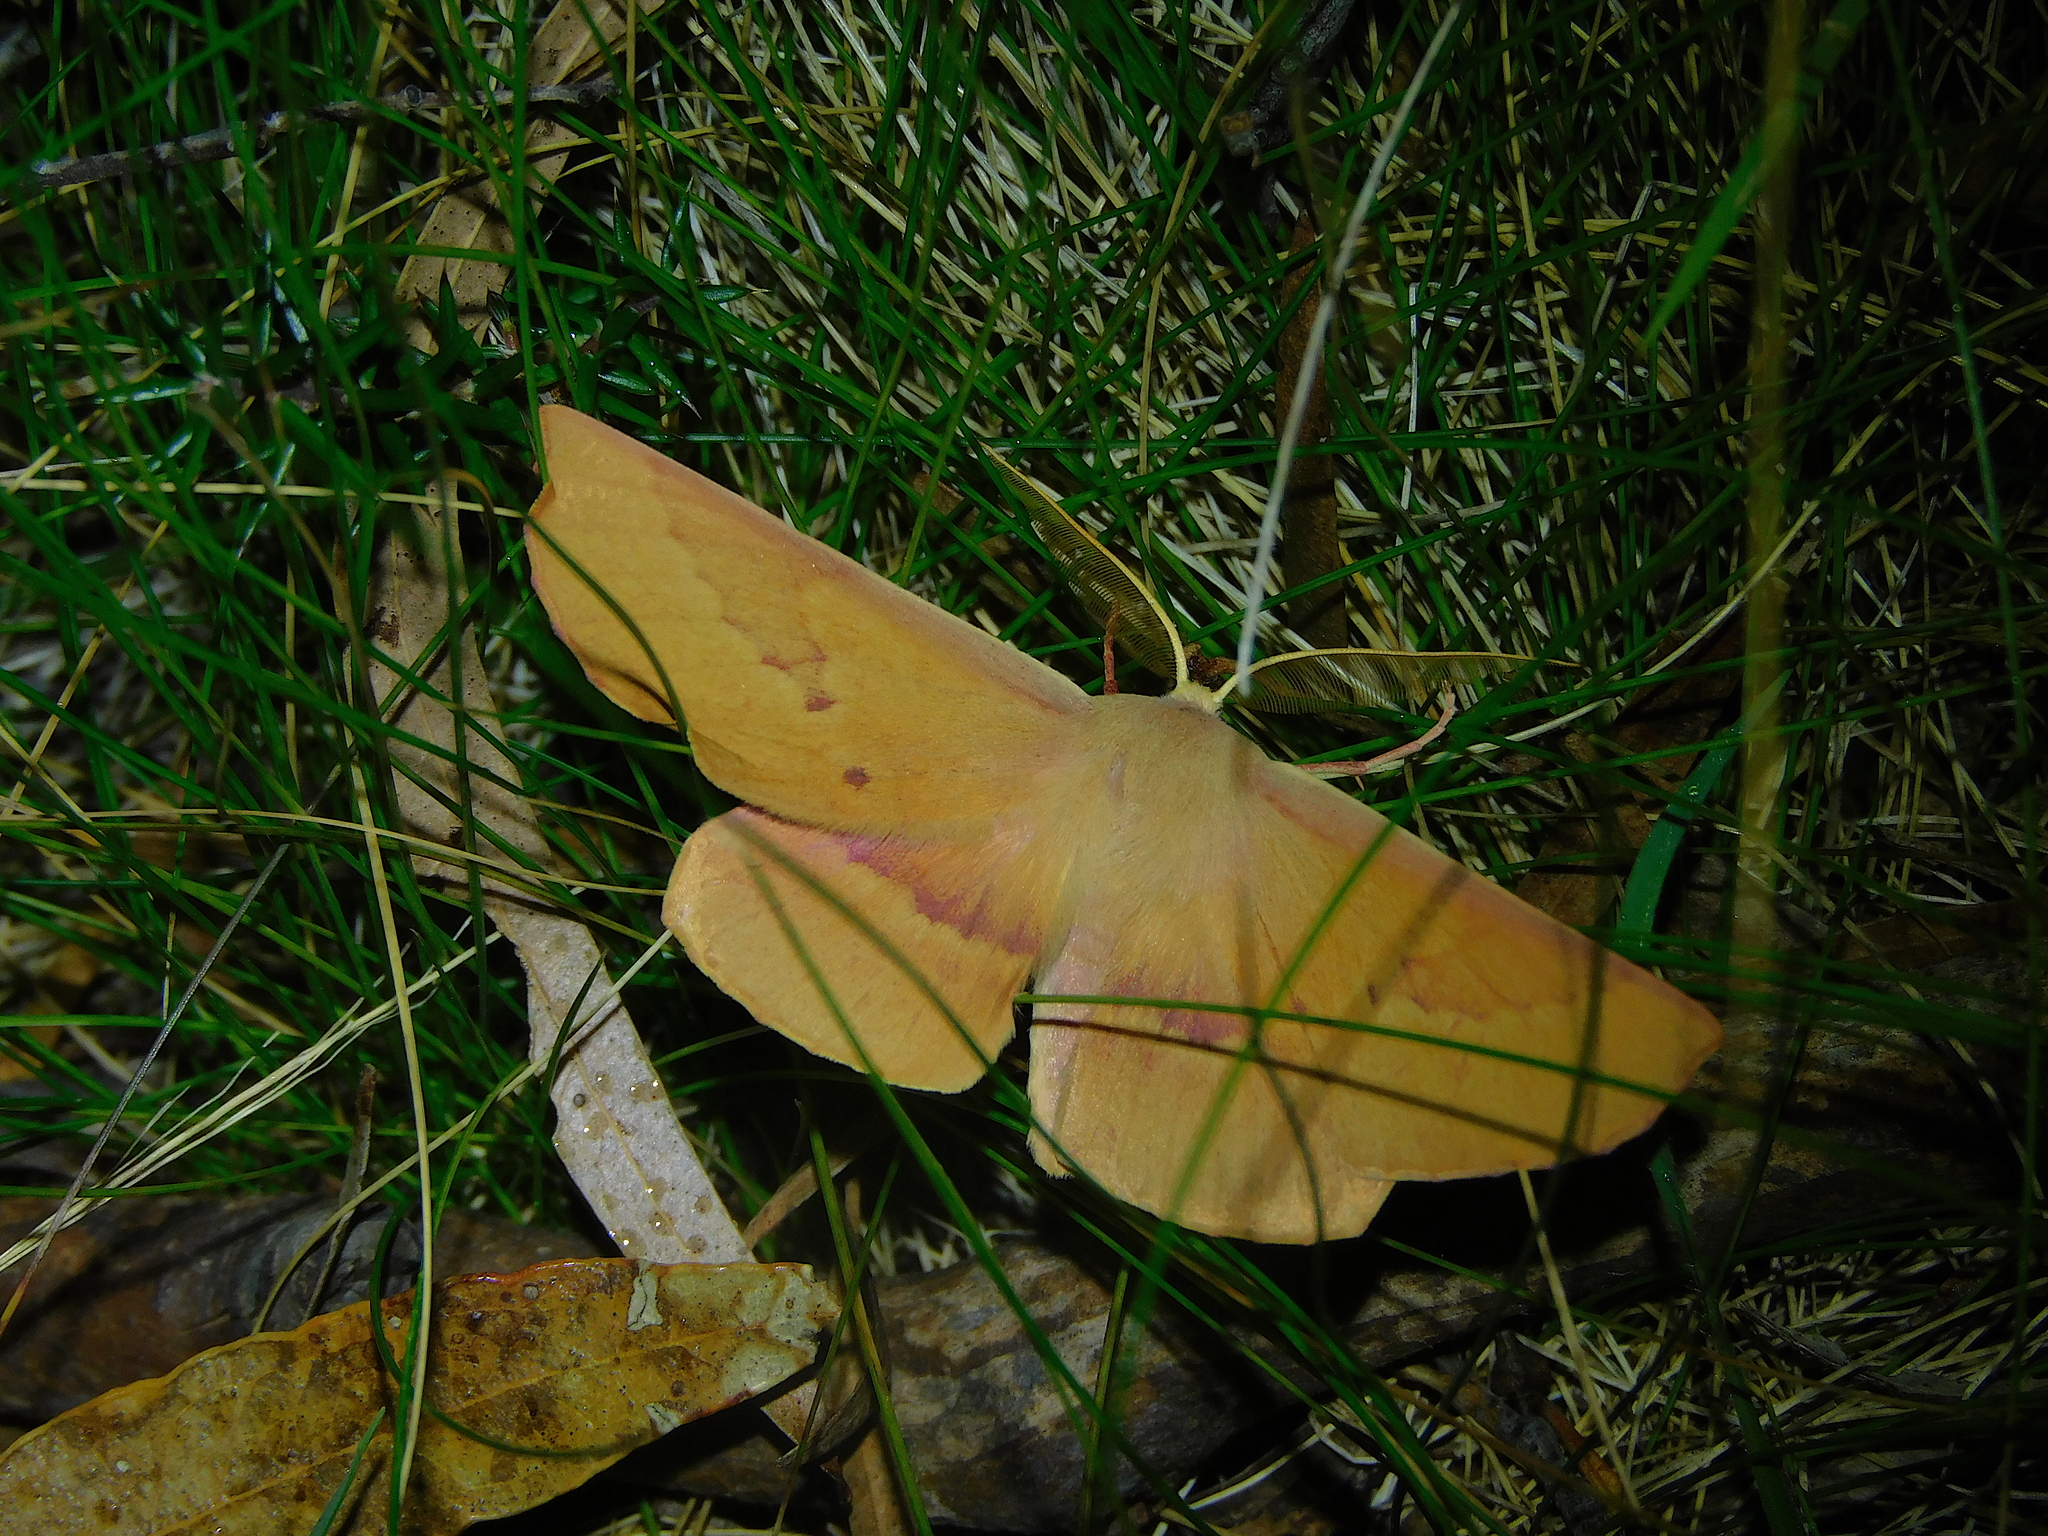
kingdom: Animalia
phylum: Arthropoda
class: Insecta
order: Lepidoptera
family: Geometridae
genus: Monoctenia
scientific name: Monoctenia falernaria
